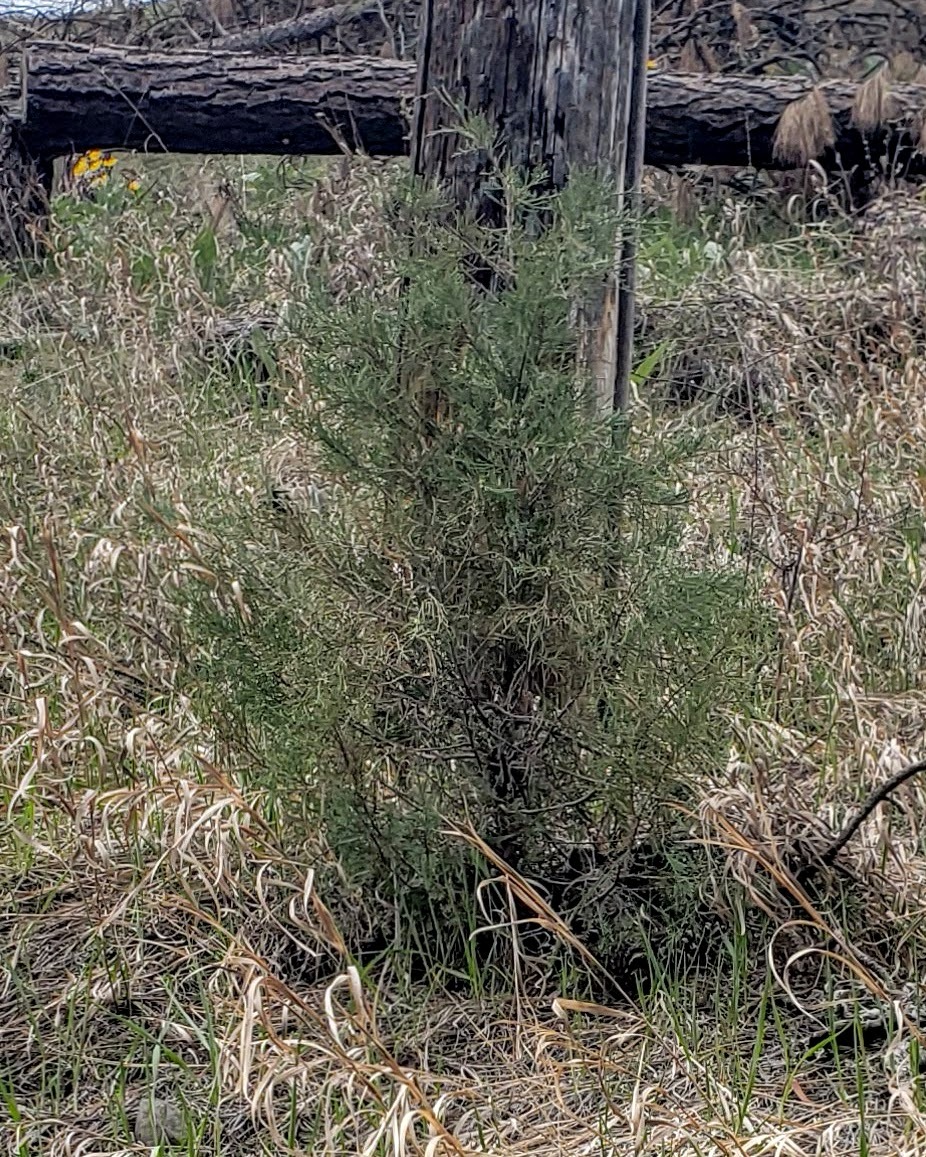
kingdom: Plantae
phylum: Tracheophyta
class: Pinopsida
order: Pinales
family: Cupressaceae
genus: Juniperus
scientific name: Juniperus scopulorum
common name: Rocky mountain juniper
